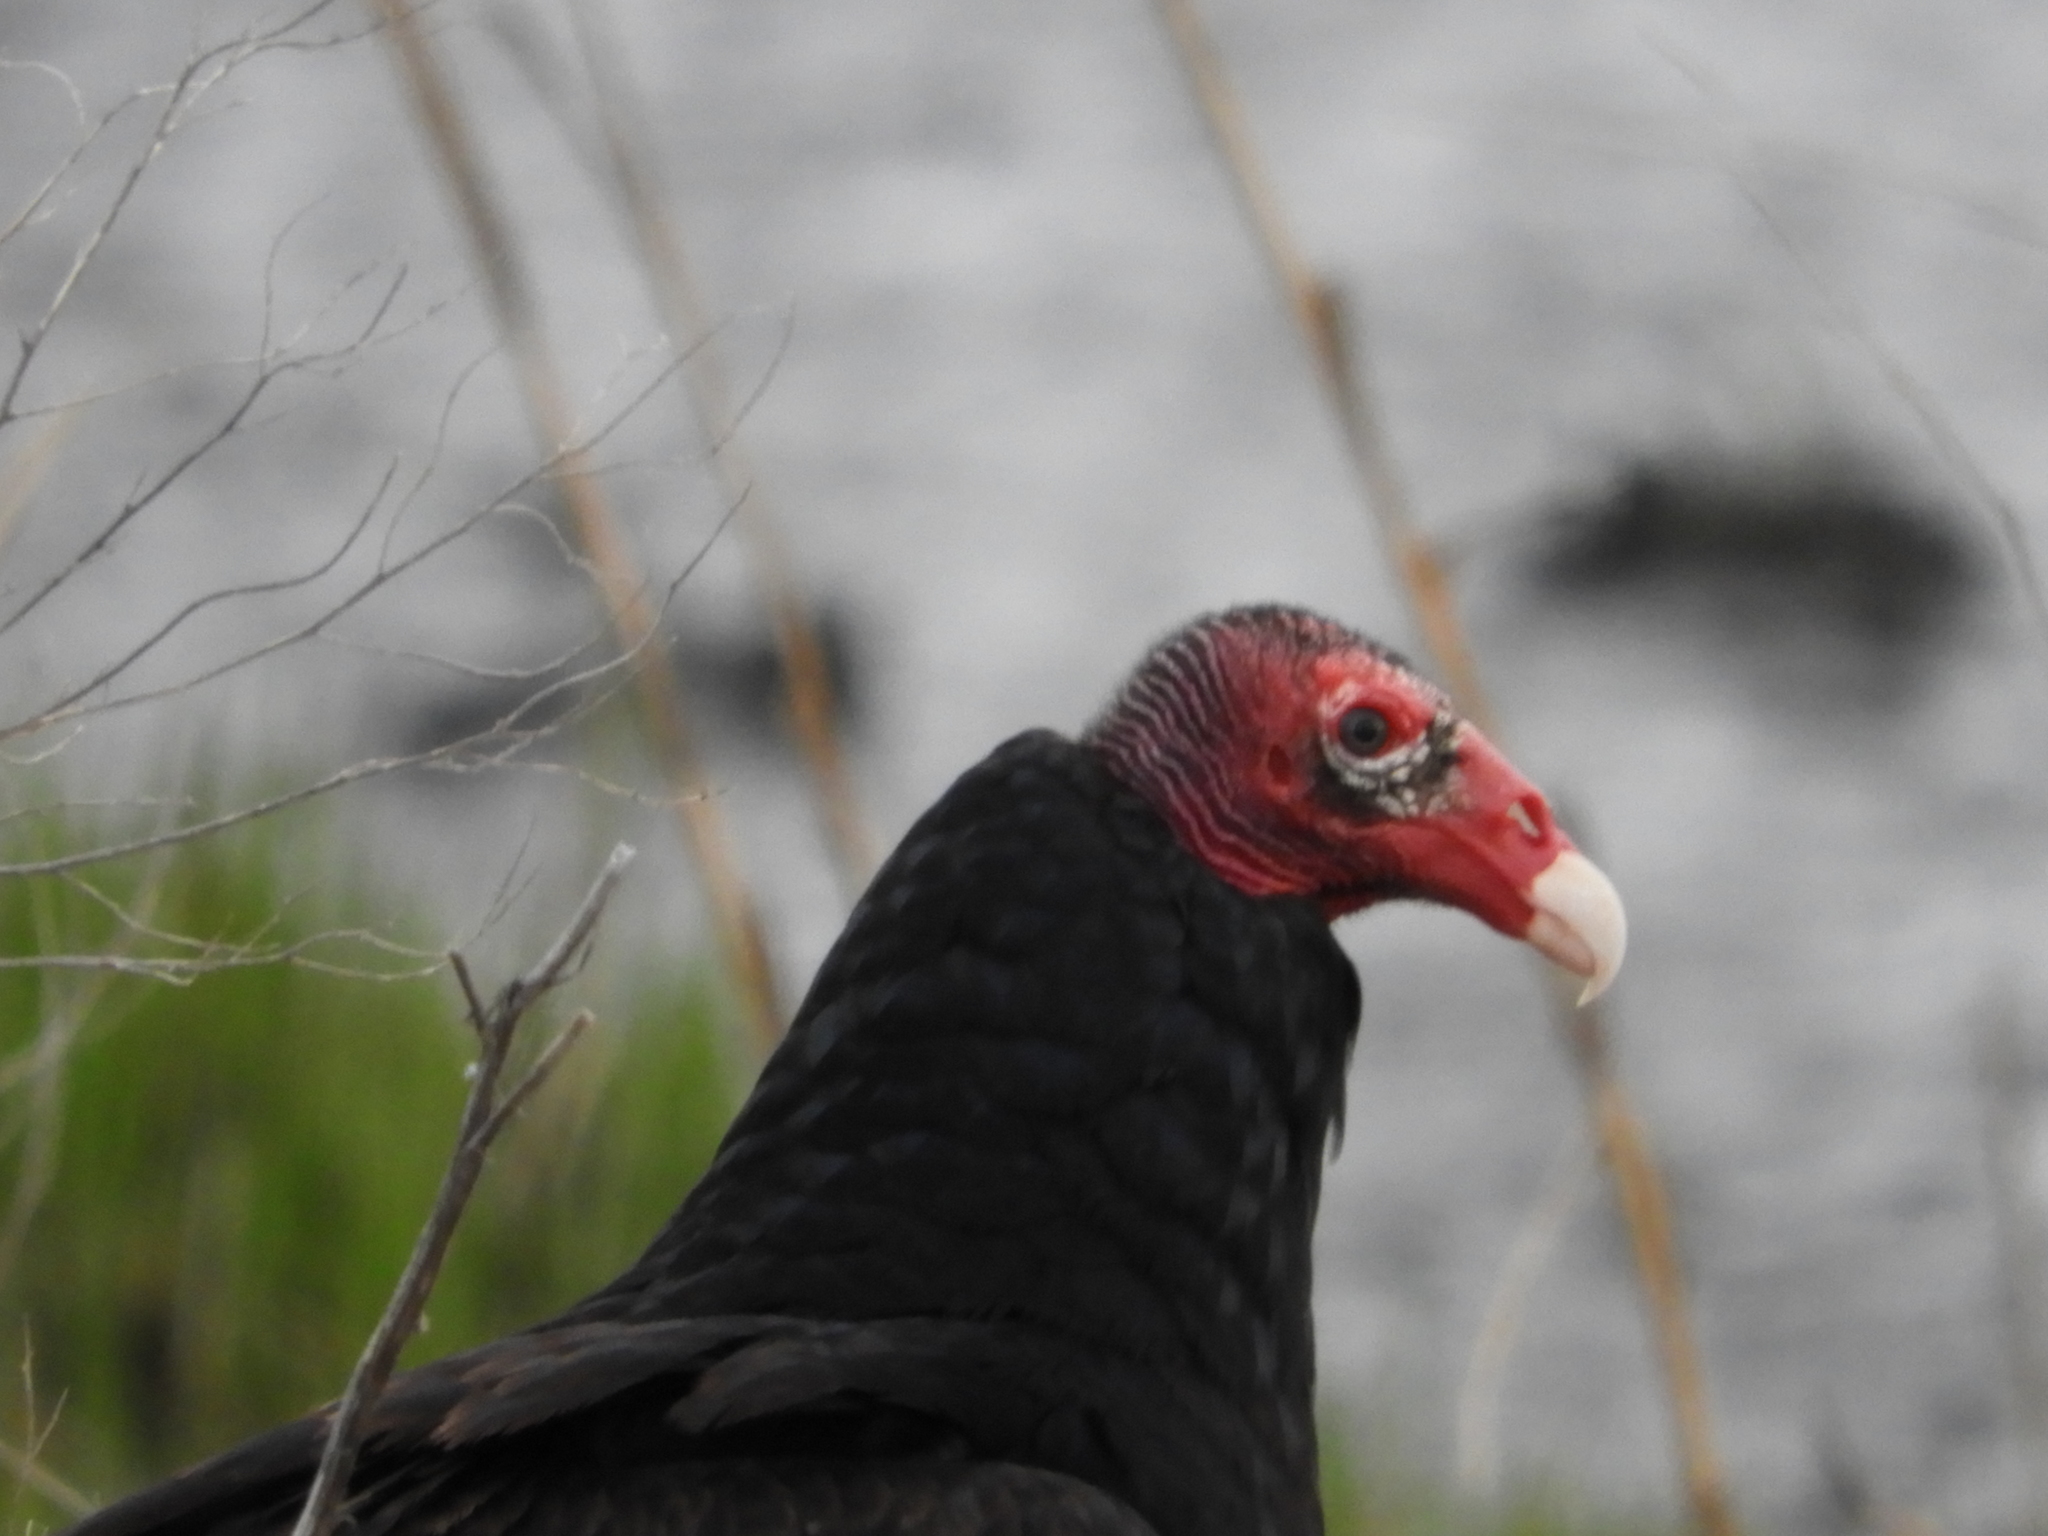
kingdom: Animalia
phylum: Chordata
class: Aves
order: Accipitriformes
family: Cathartidae
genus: Cathartes
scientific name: Cathartes aura
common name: Turkey vulture
